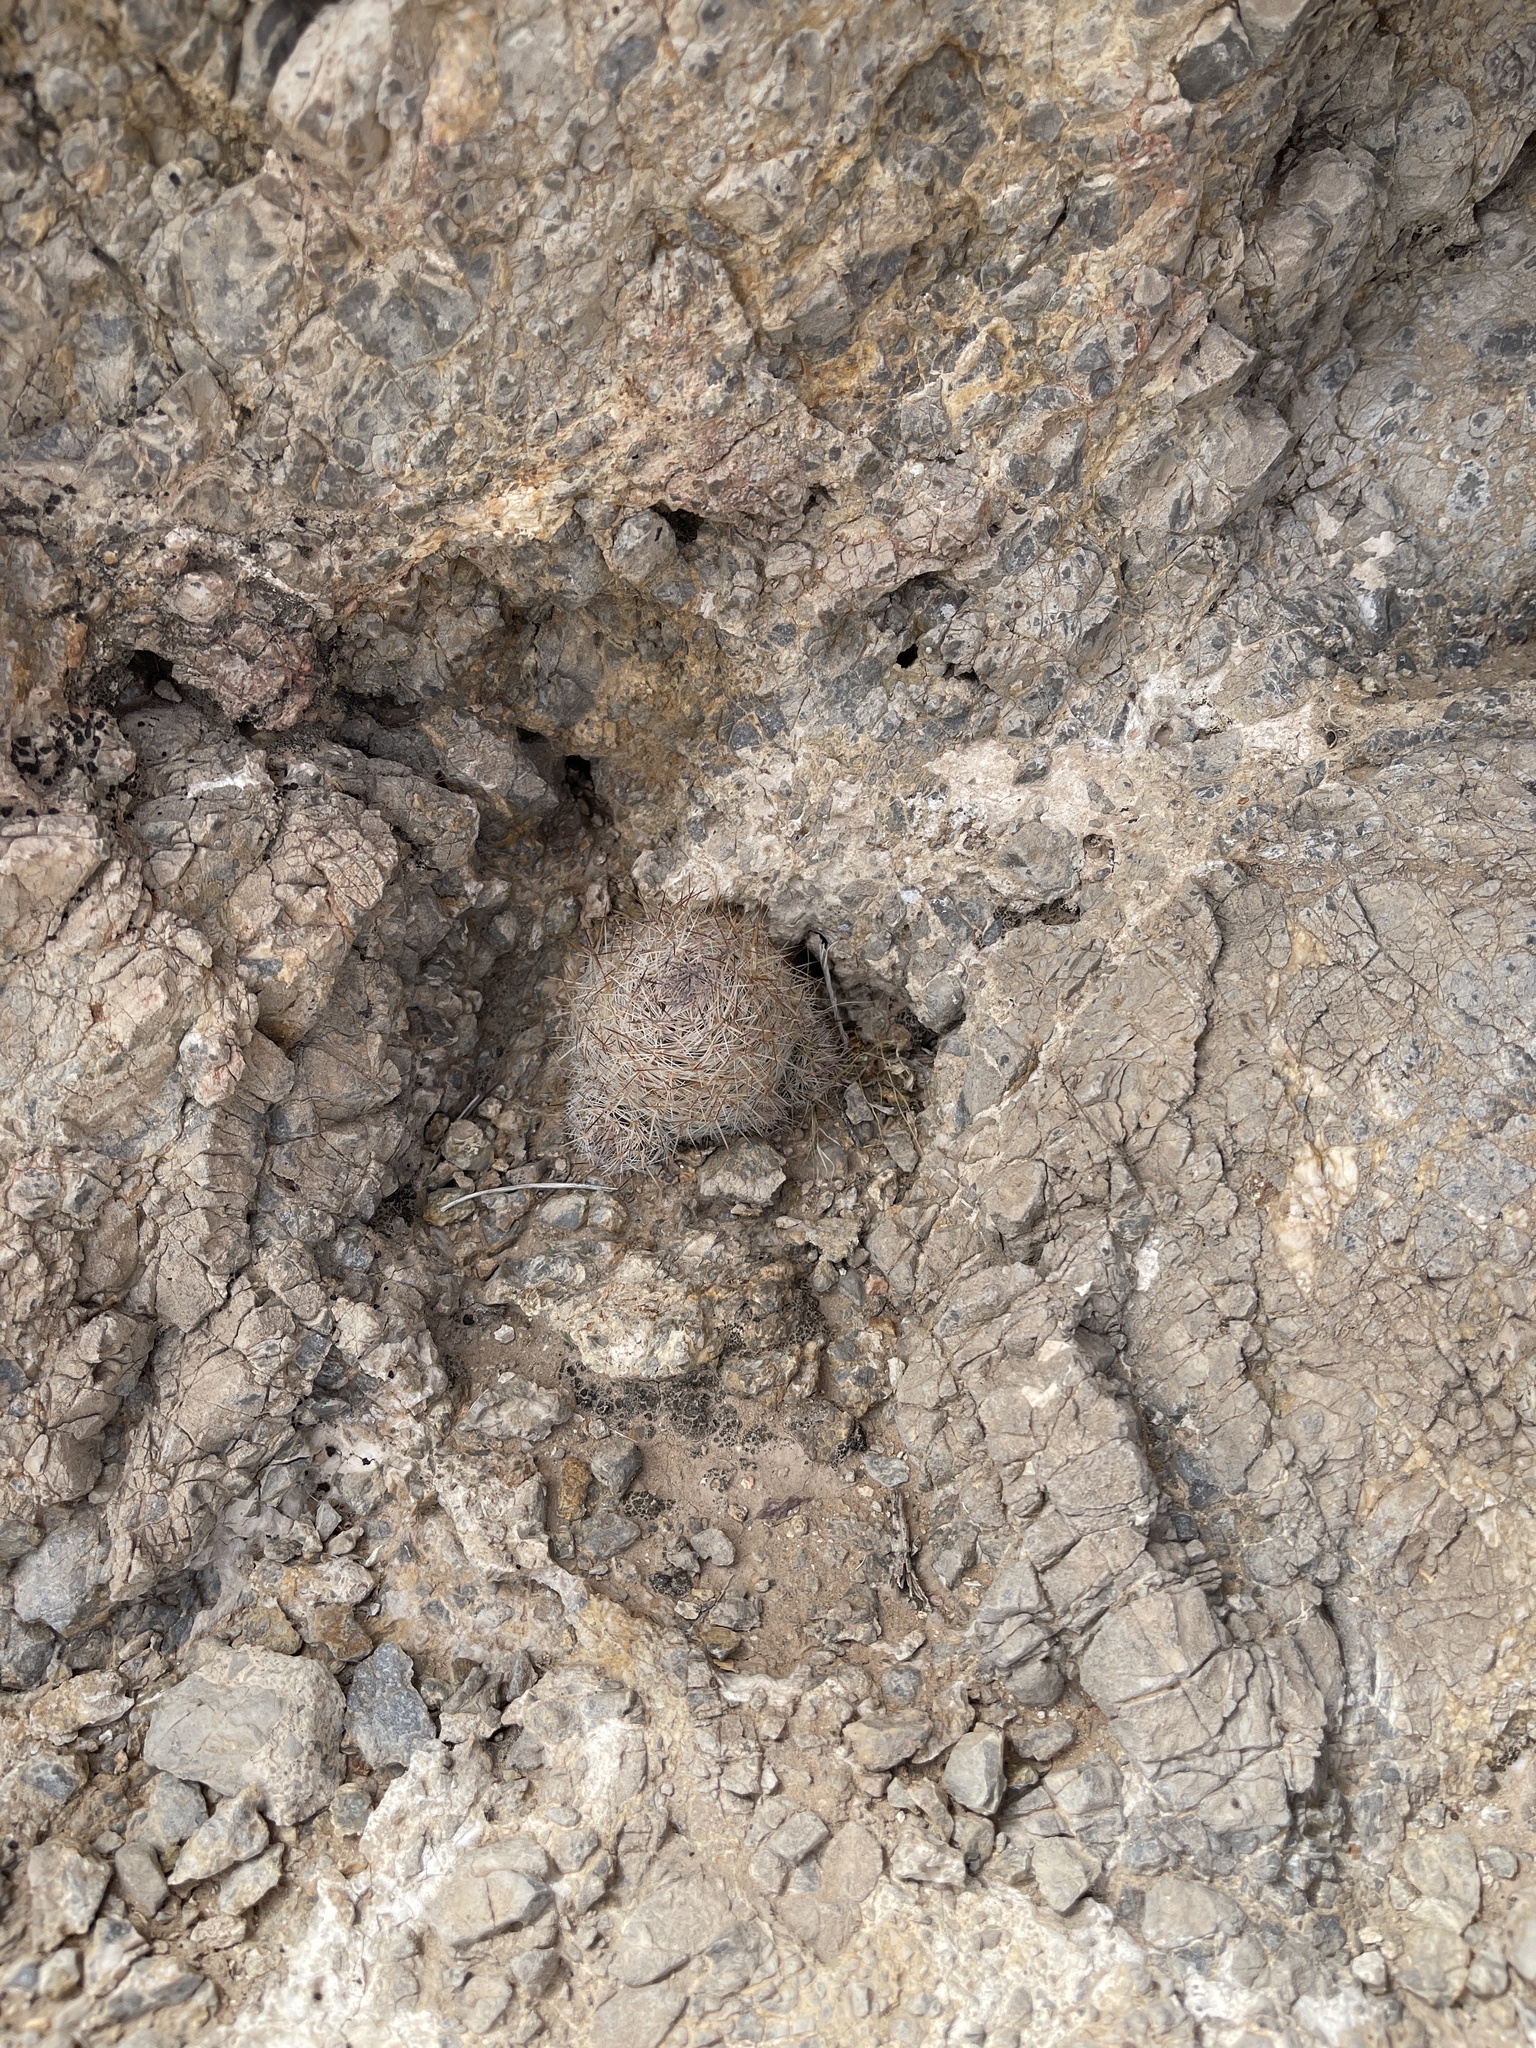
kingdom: Plantae
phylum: Tracheophyta
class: Magnoliopsida
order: Caryophyllales
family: Cactaceae
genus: Pelecyphora
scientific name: Pelecyphora tuberculosa
